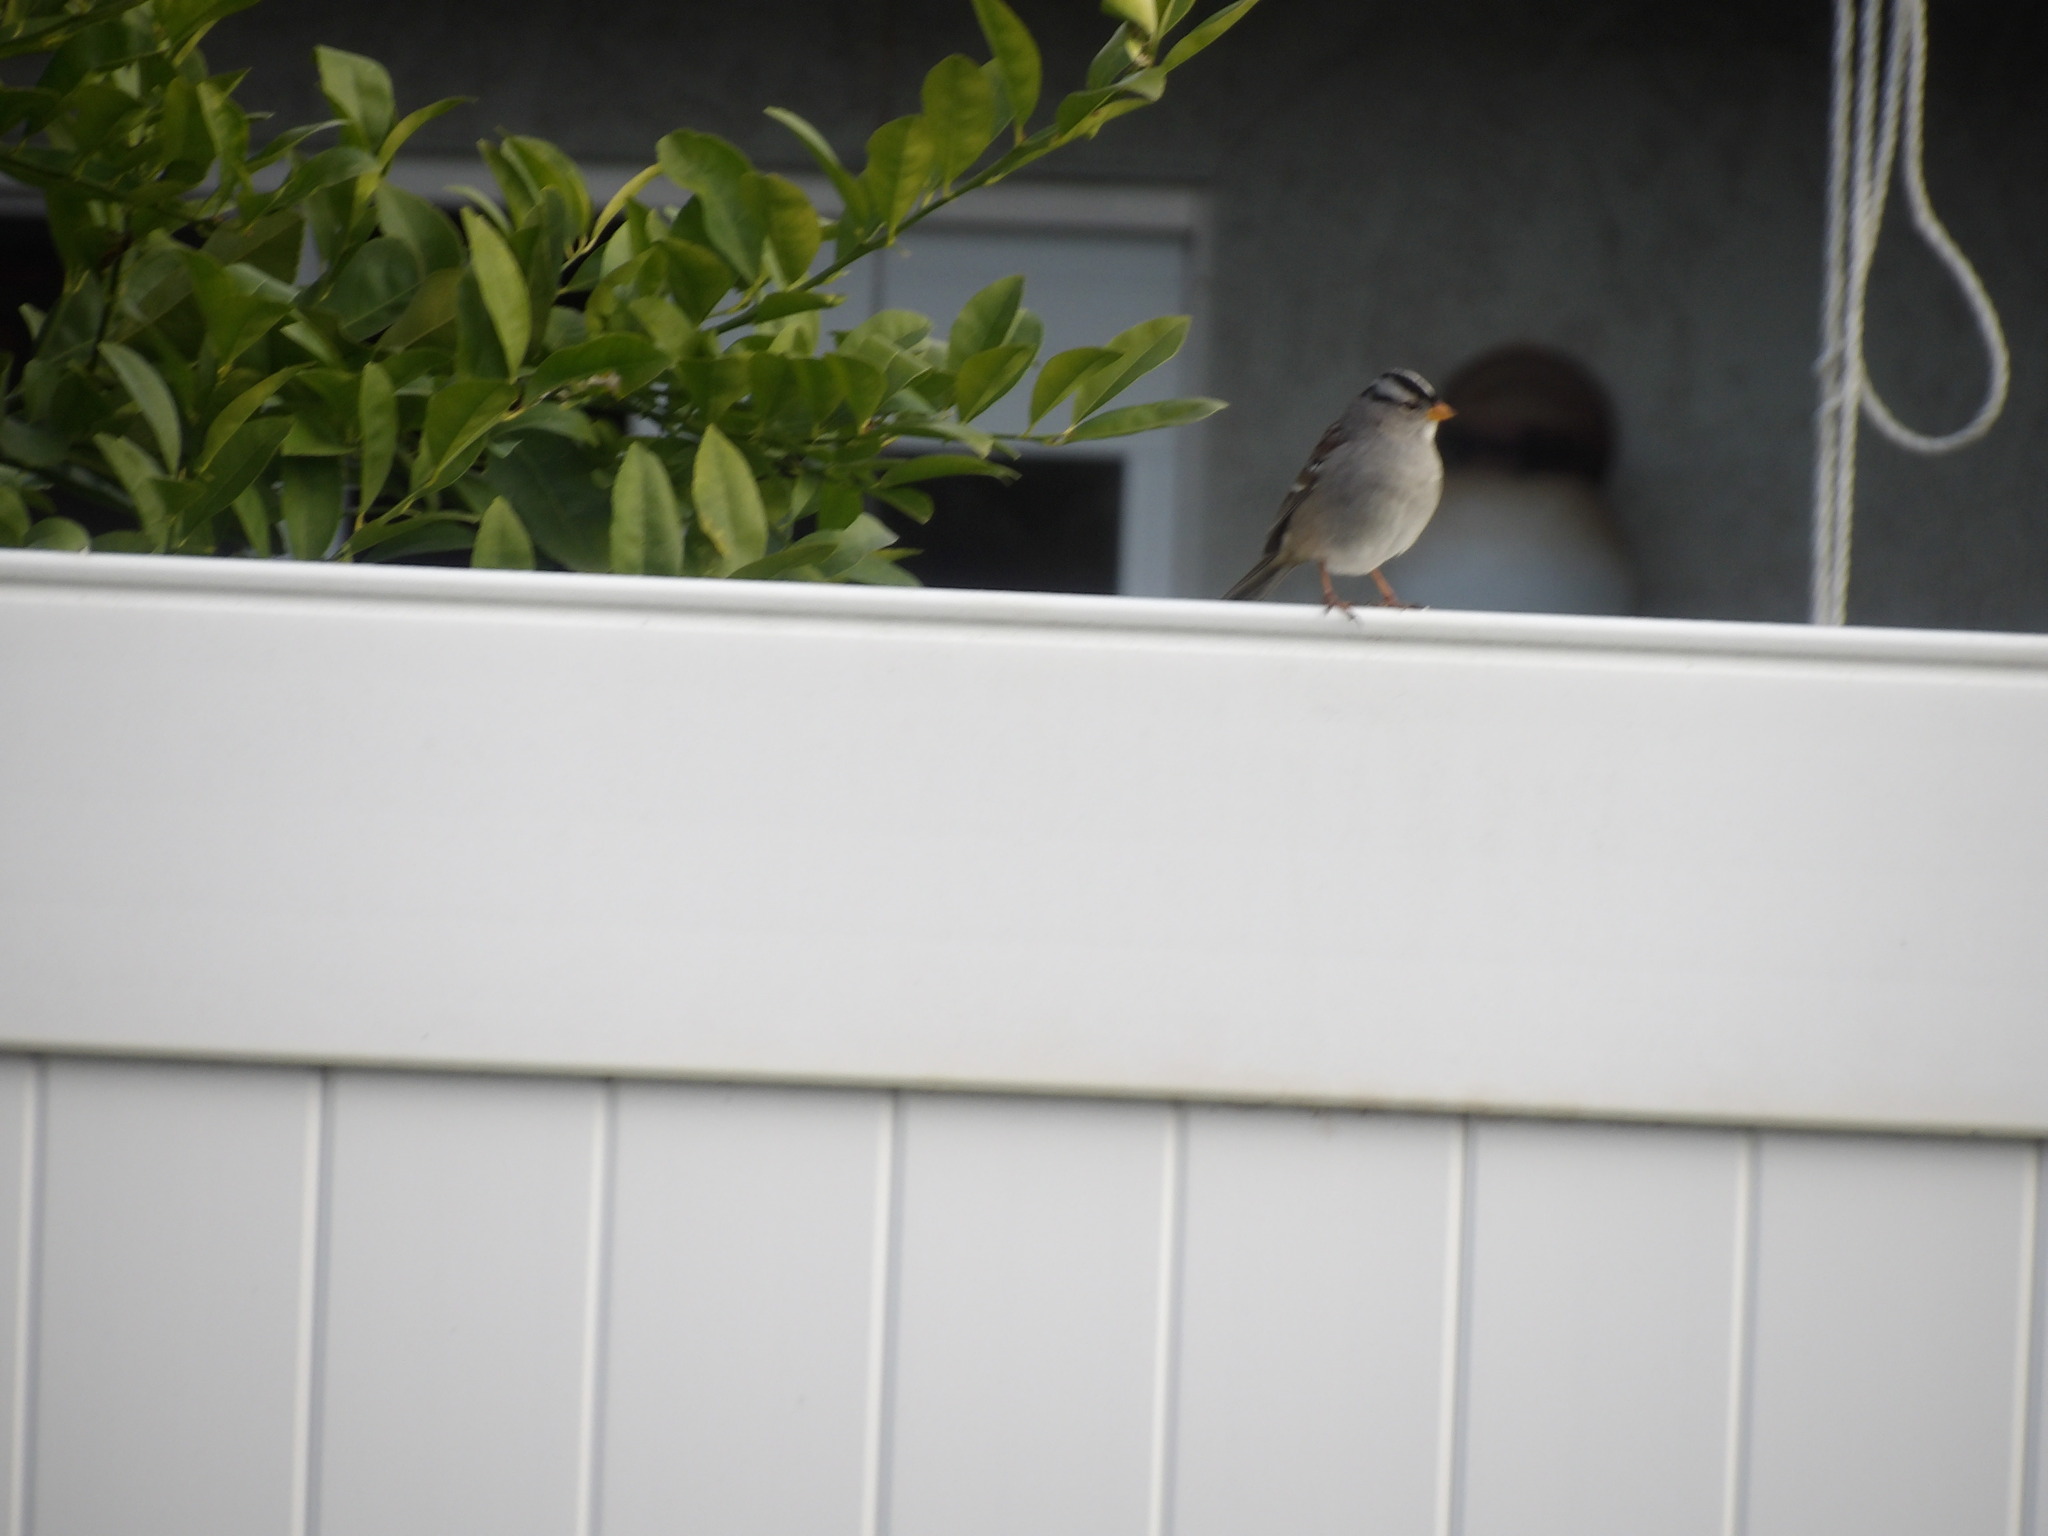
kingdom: Animalia
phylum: Chordata
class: Aves
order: Passeriformes
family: Passerellidae
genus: Zonotrichia
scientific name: Zonotrichia leucophrys
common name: White-crowned sparrow
